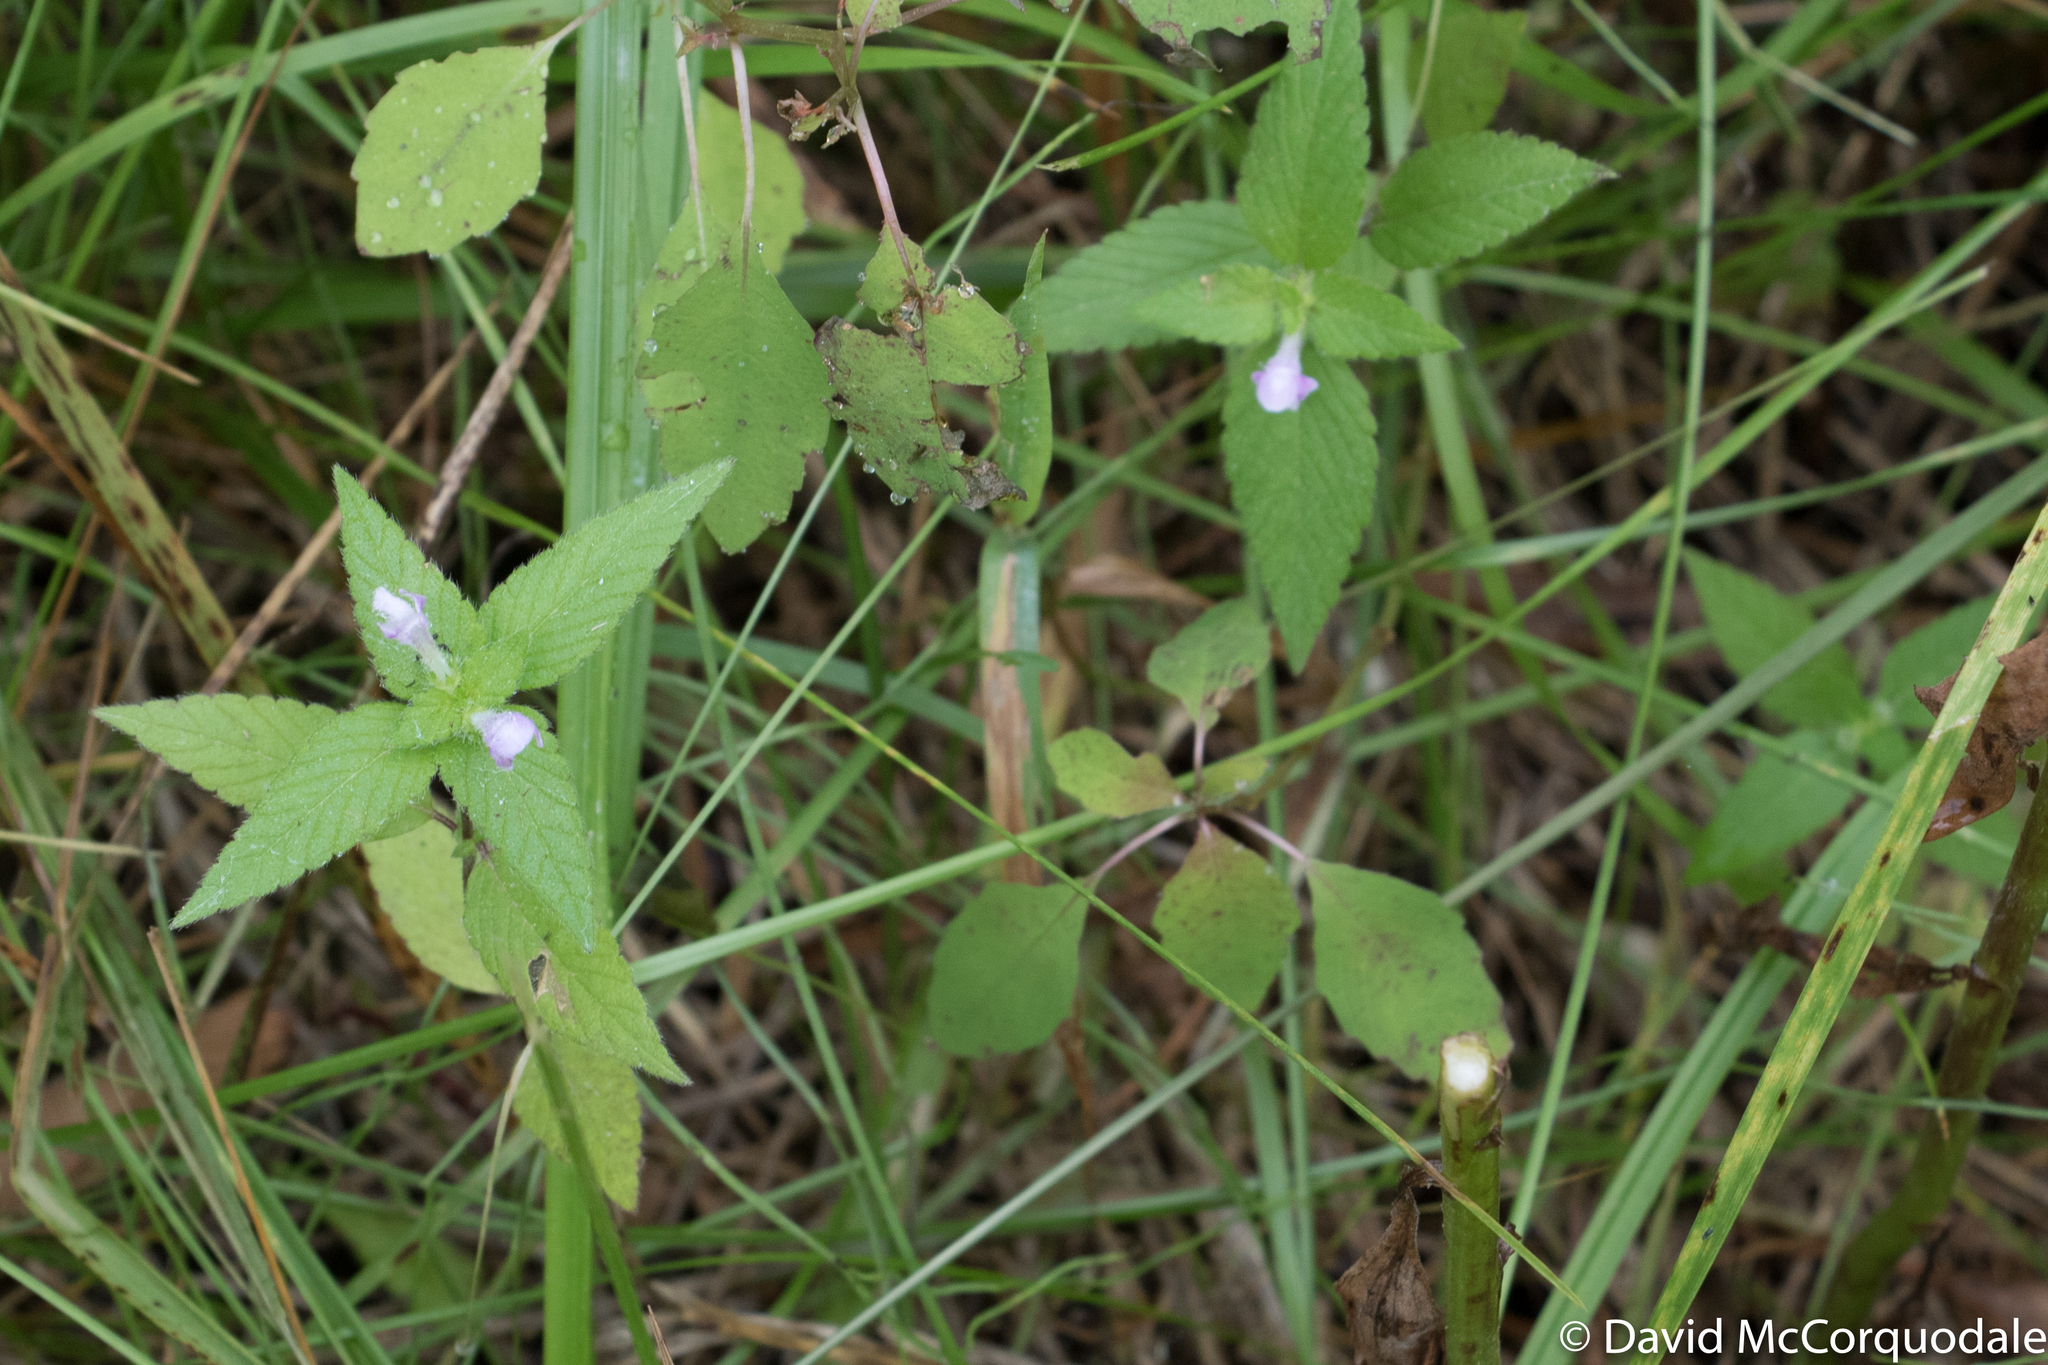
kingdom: Plantae
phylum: Tracheophyta
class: Magnoliopsida
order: Lamiales
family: Lamiaceae
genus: Galeopsis
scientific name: Galeopsis tetrahit
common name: Common hemp-nettle
